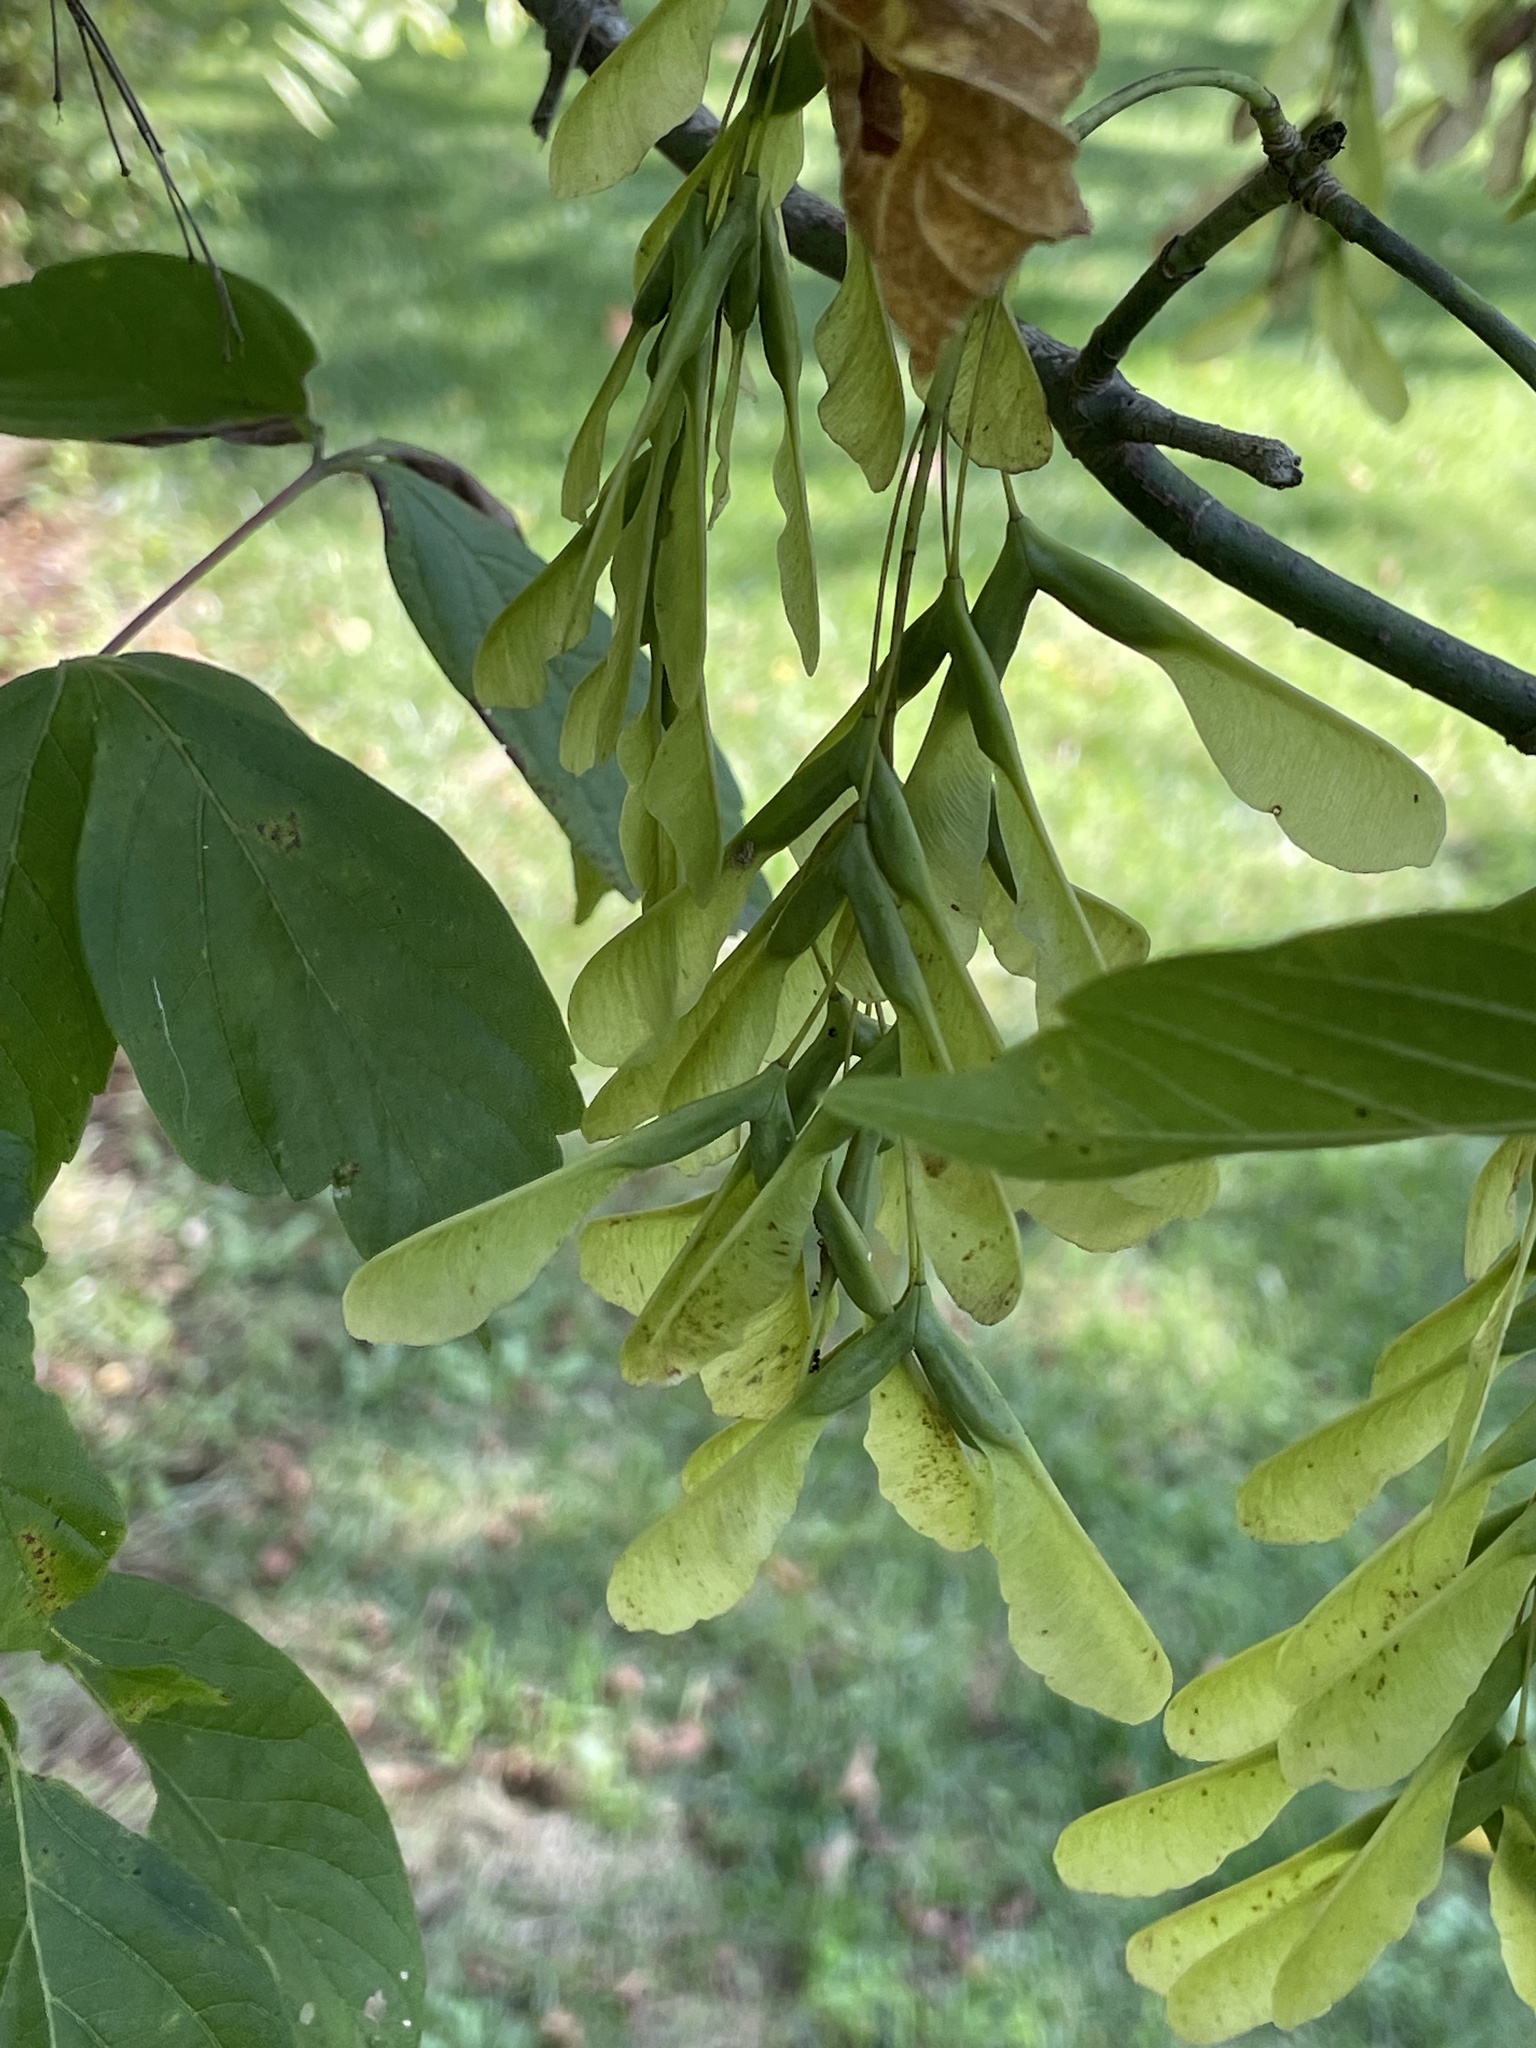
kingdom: Plantae
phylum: Tracheophyta
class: Magnoliopsida
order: Sapindales
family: Sapindaceae
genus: Acer
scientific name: Acer negundo
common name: Ashleaf maple
